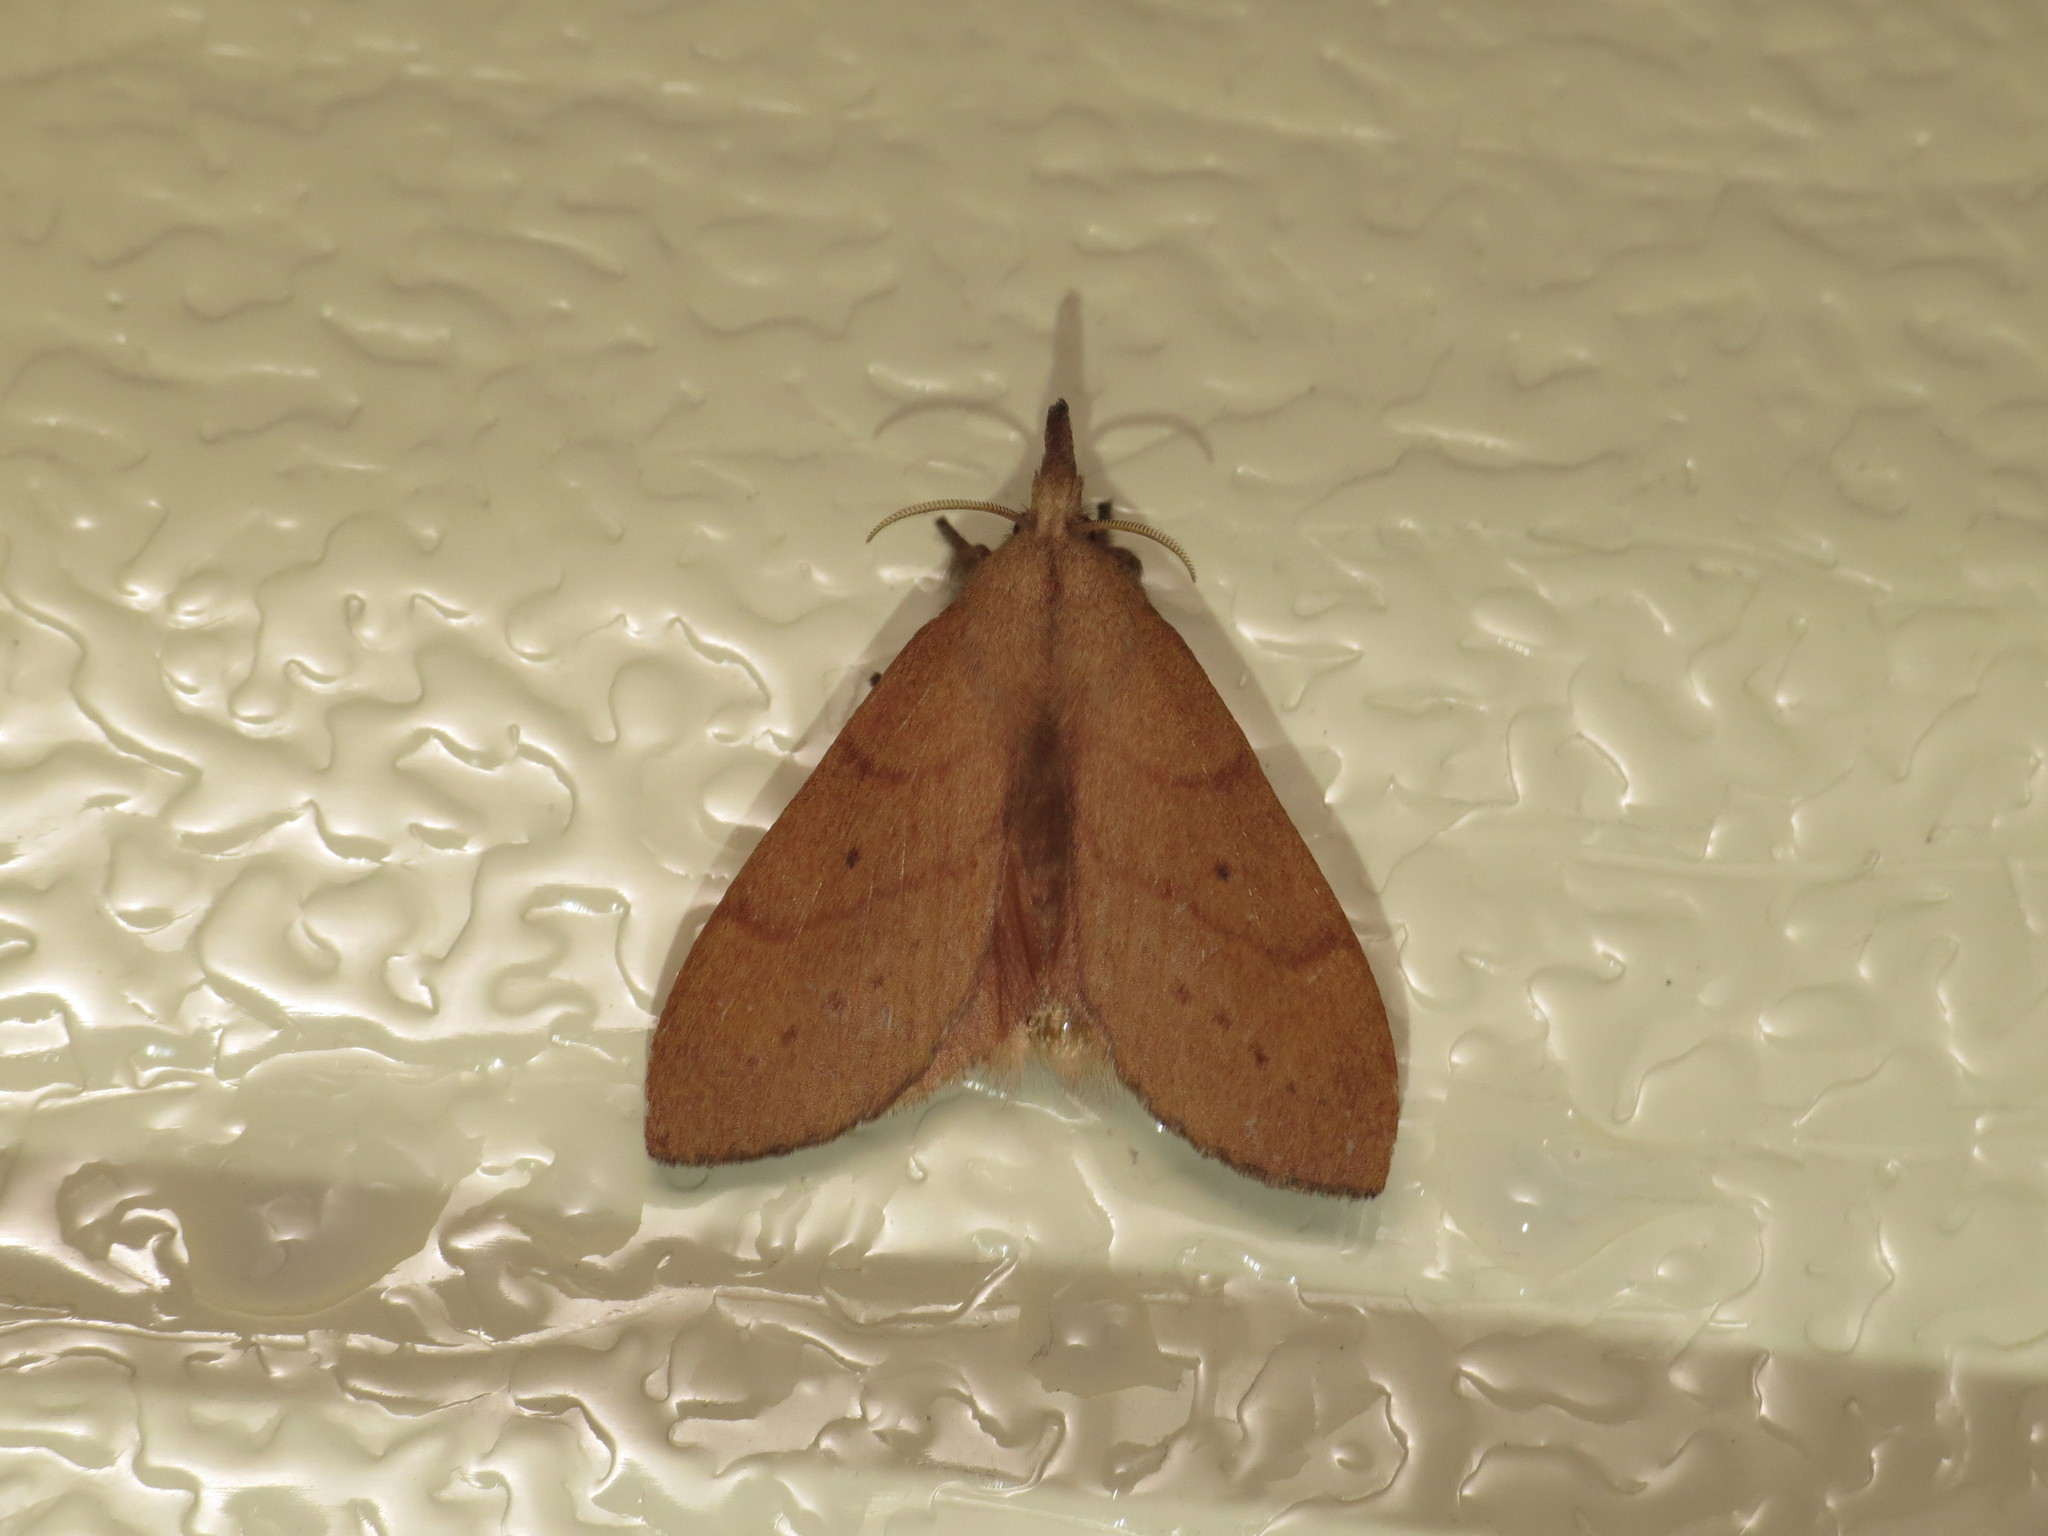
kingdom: Animalia
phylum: Arthropoda
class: Insecta
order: Lepidoptera
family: Lasiocampidae
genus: Pararguda
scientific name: Pararguda nasuta
